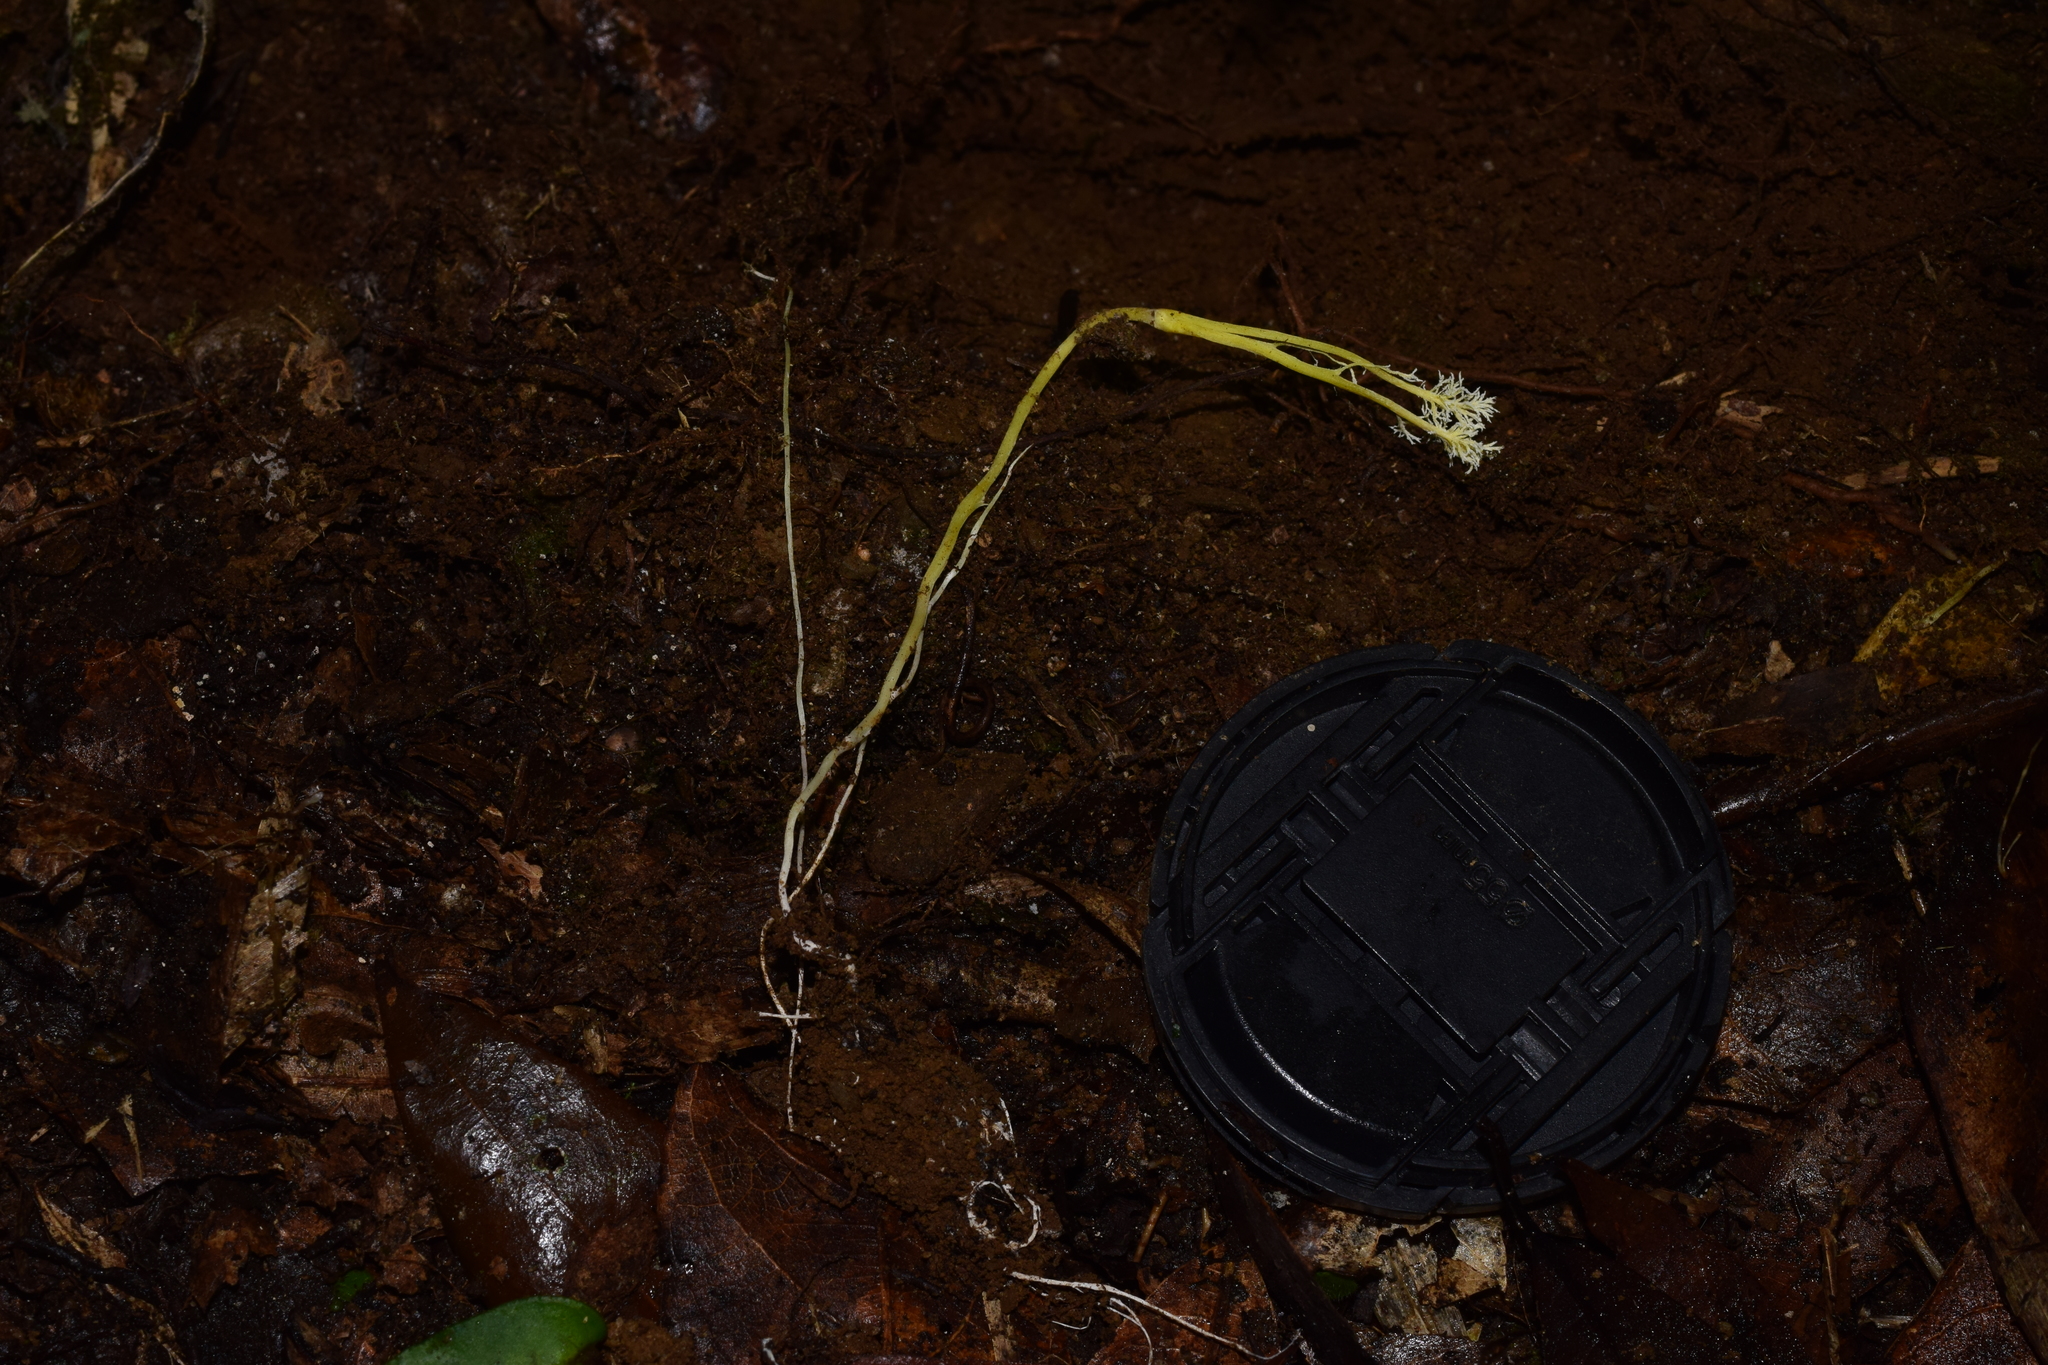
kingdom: Fungi
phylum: Ascomycota
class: Sordariomycetes
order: Hypocreales
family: Cordycipitaceae
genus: Cordyceps
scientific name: Cordyceps tenuipes
